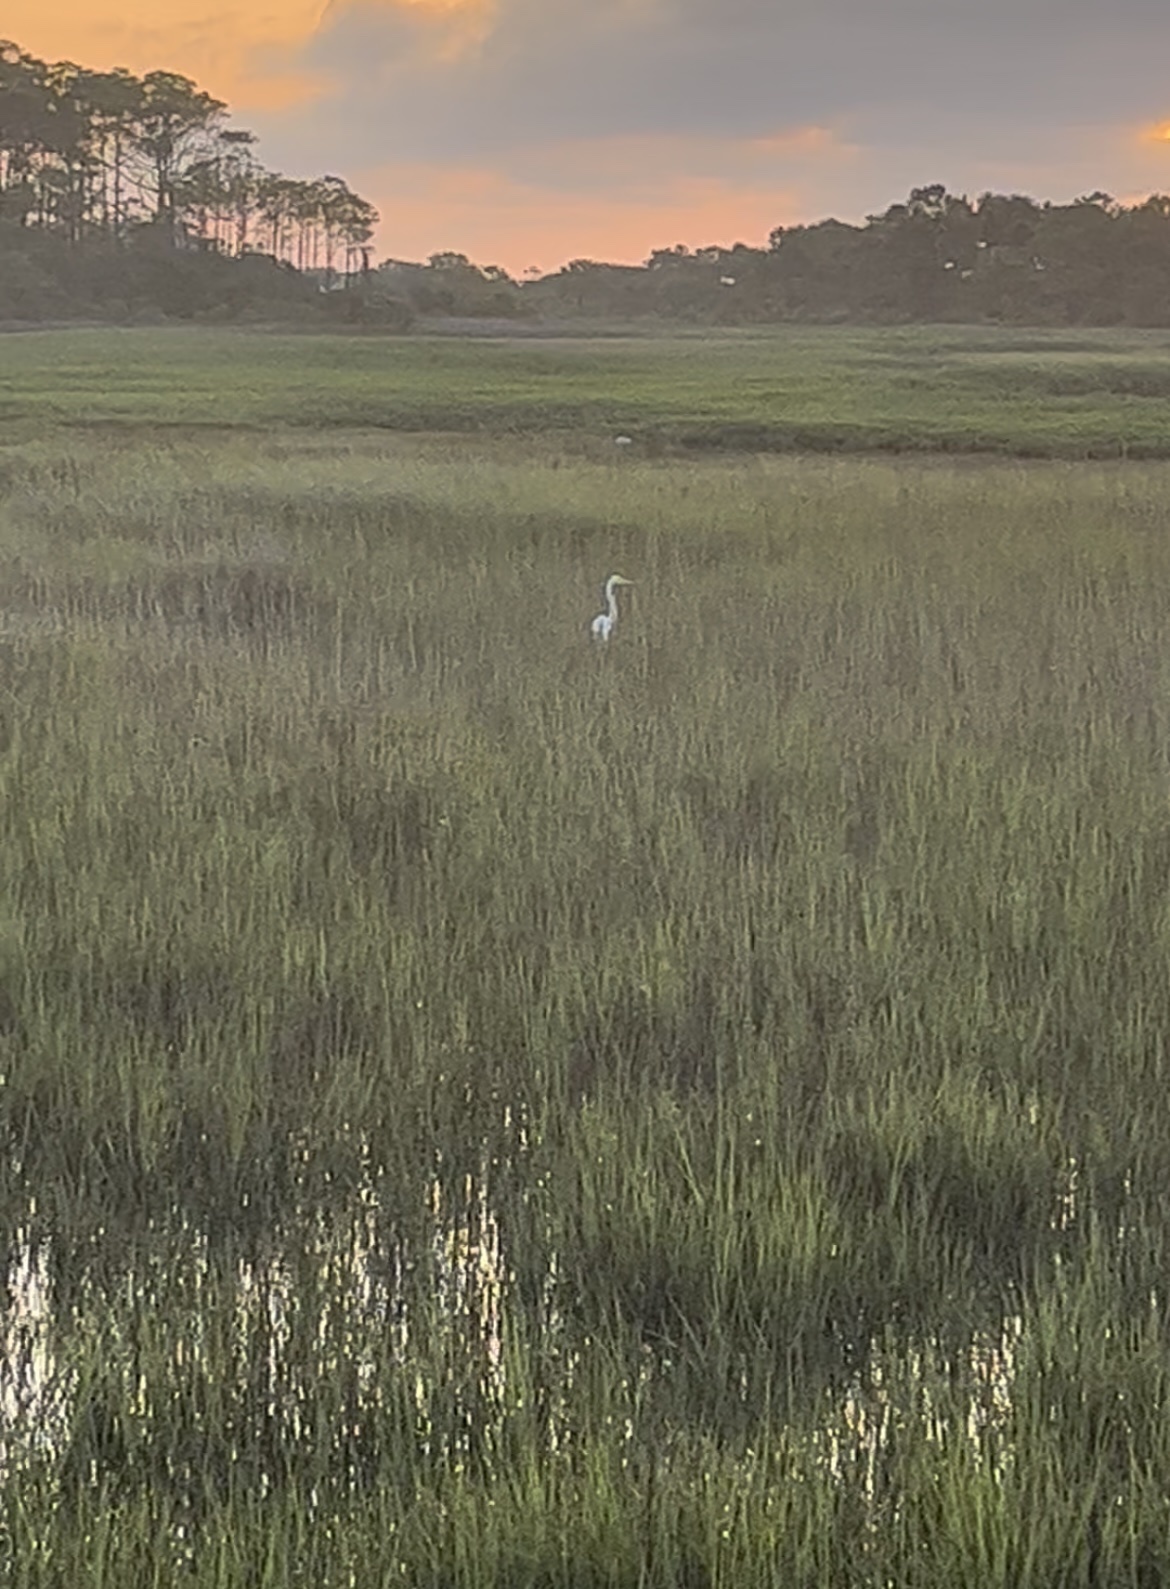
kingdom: Animalia
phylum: Chordata
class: Aves
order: Pelecaniformes
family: Ardeidae
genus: Ardea
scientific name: Ardea alba
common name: Great egret
